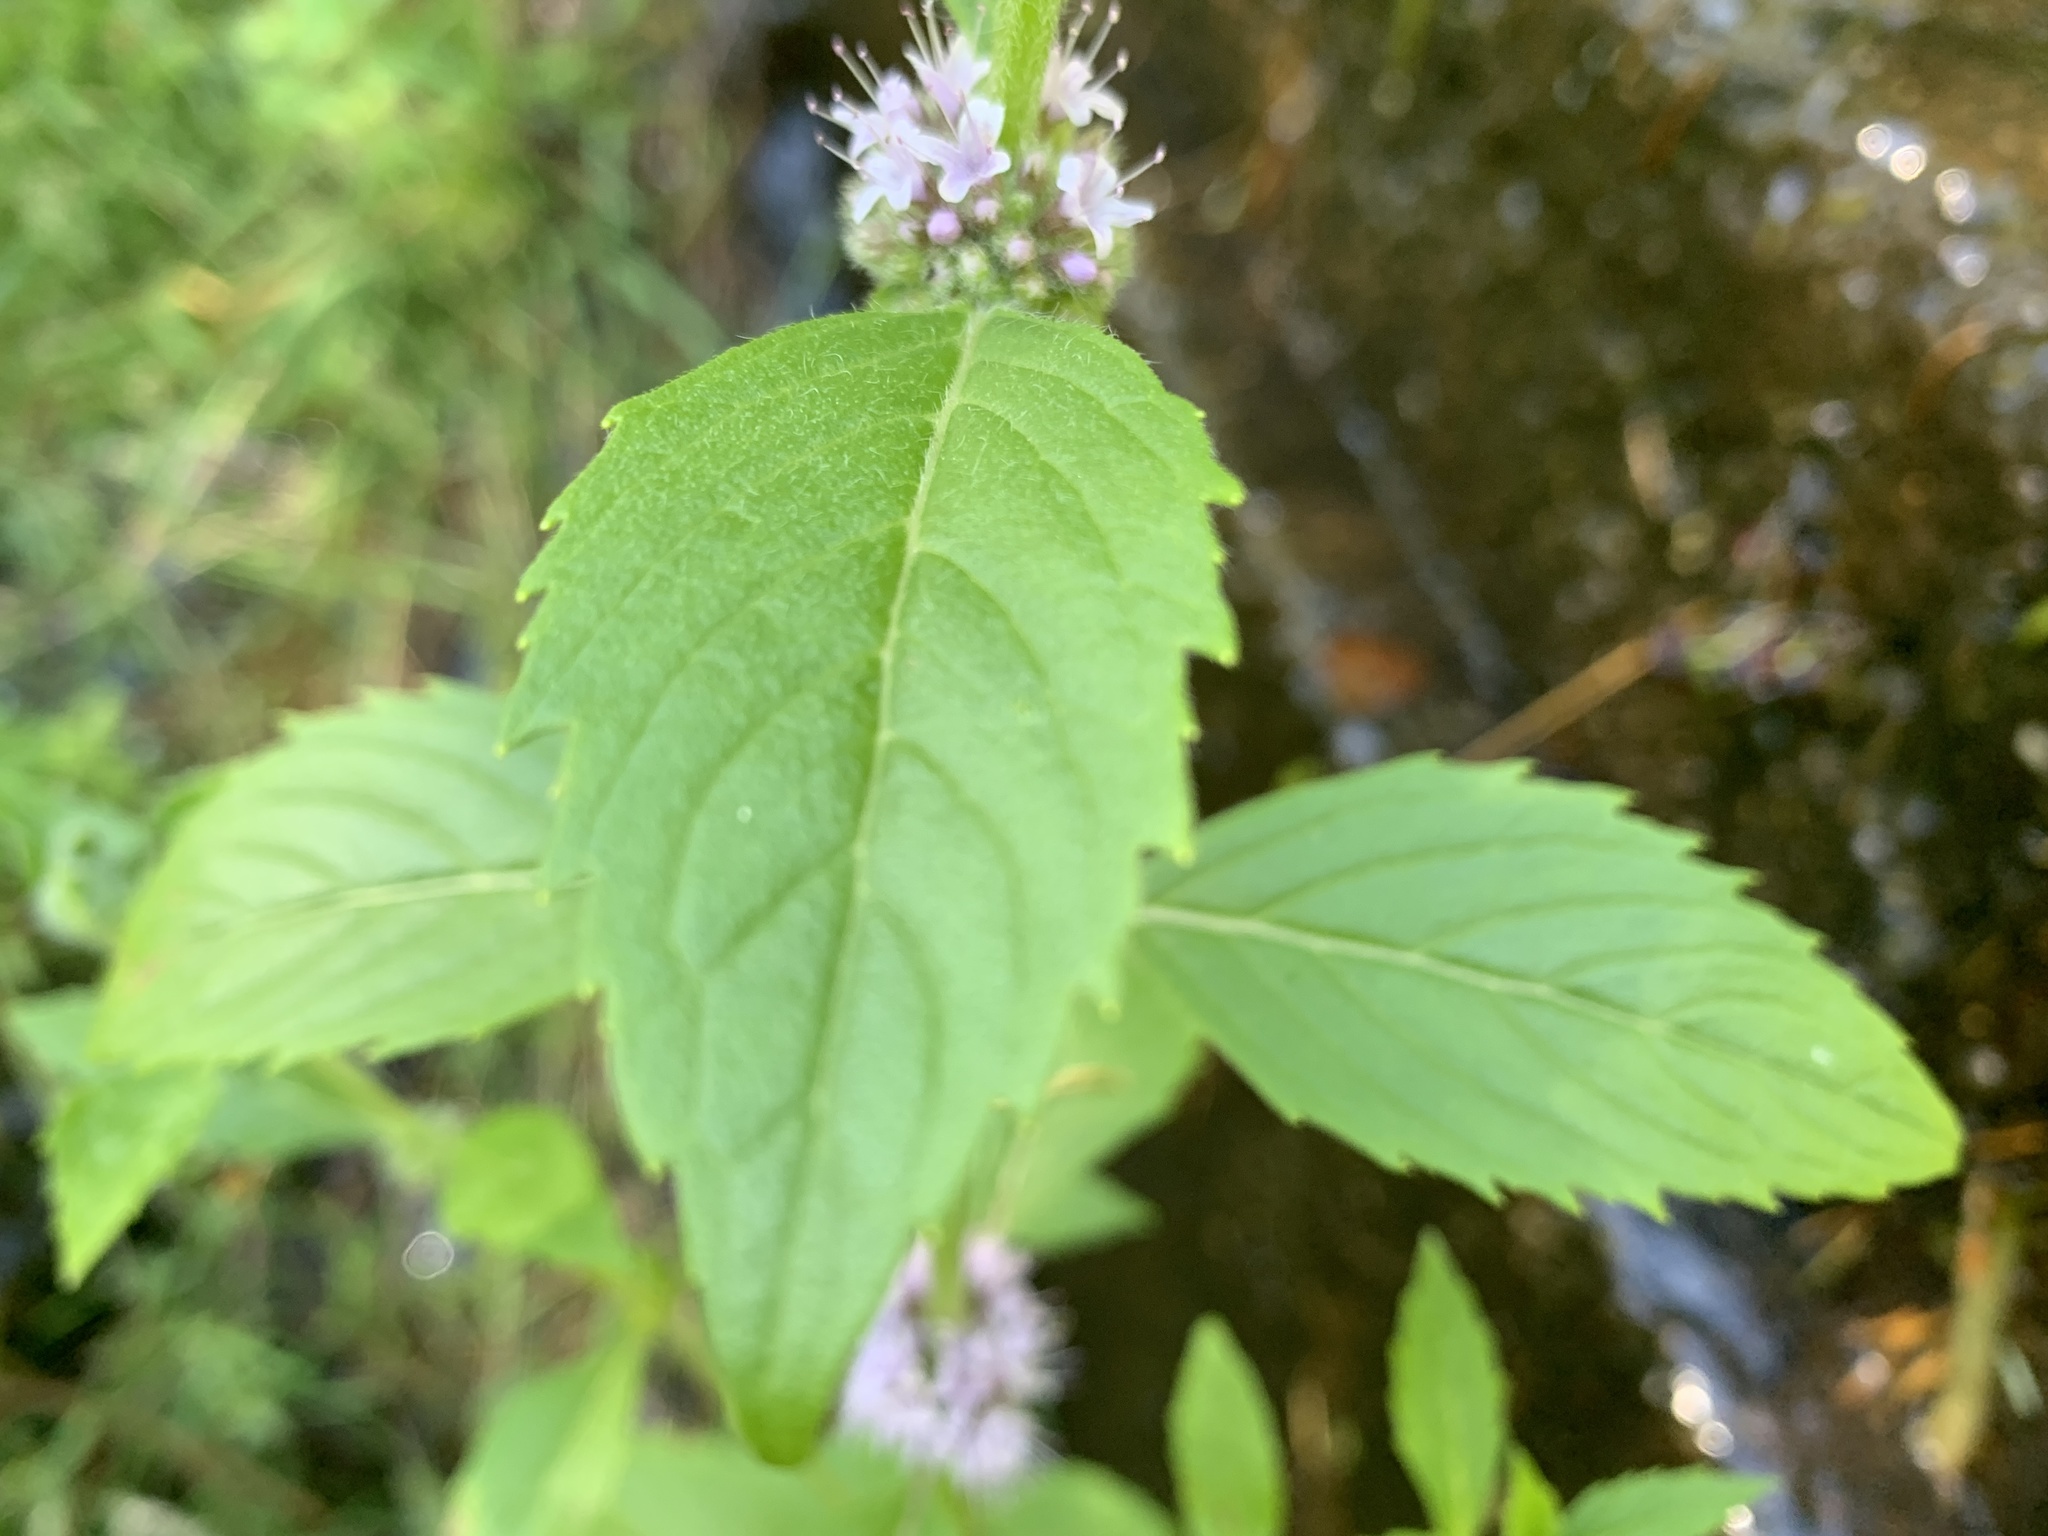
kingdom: Plantae
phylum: Tracheophyta
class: Magnoliopsida
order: Lamiales
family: Lamiaceae
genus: Mentha
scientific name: Mentha canadensis
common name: American corn mint
